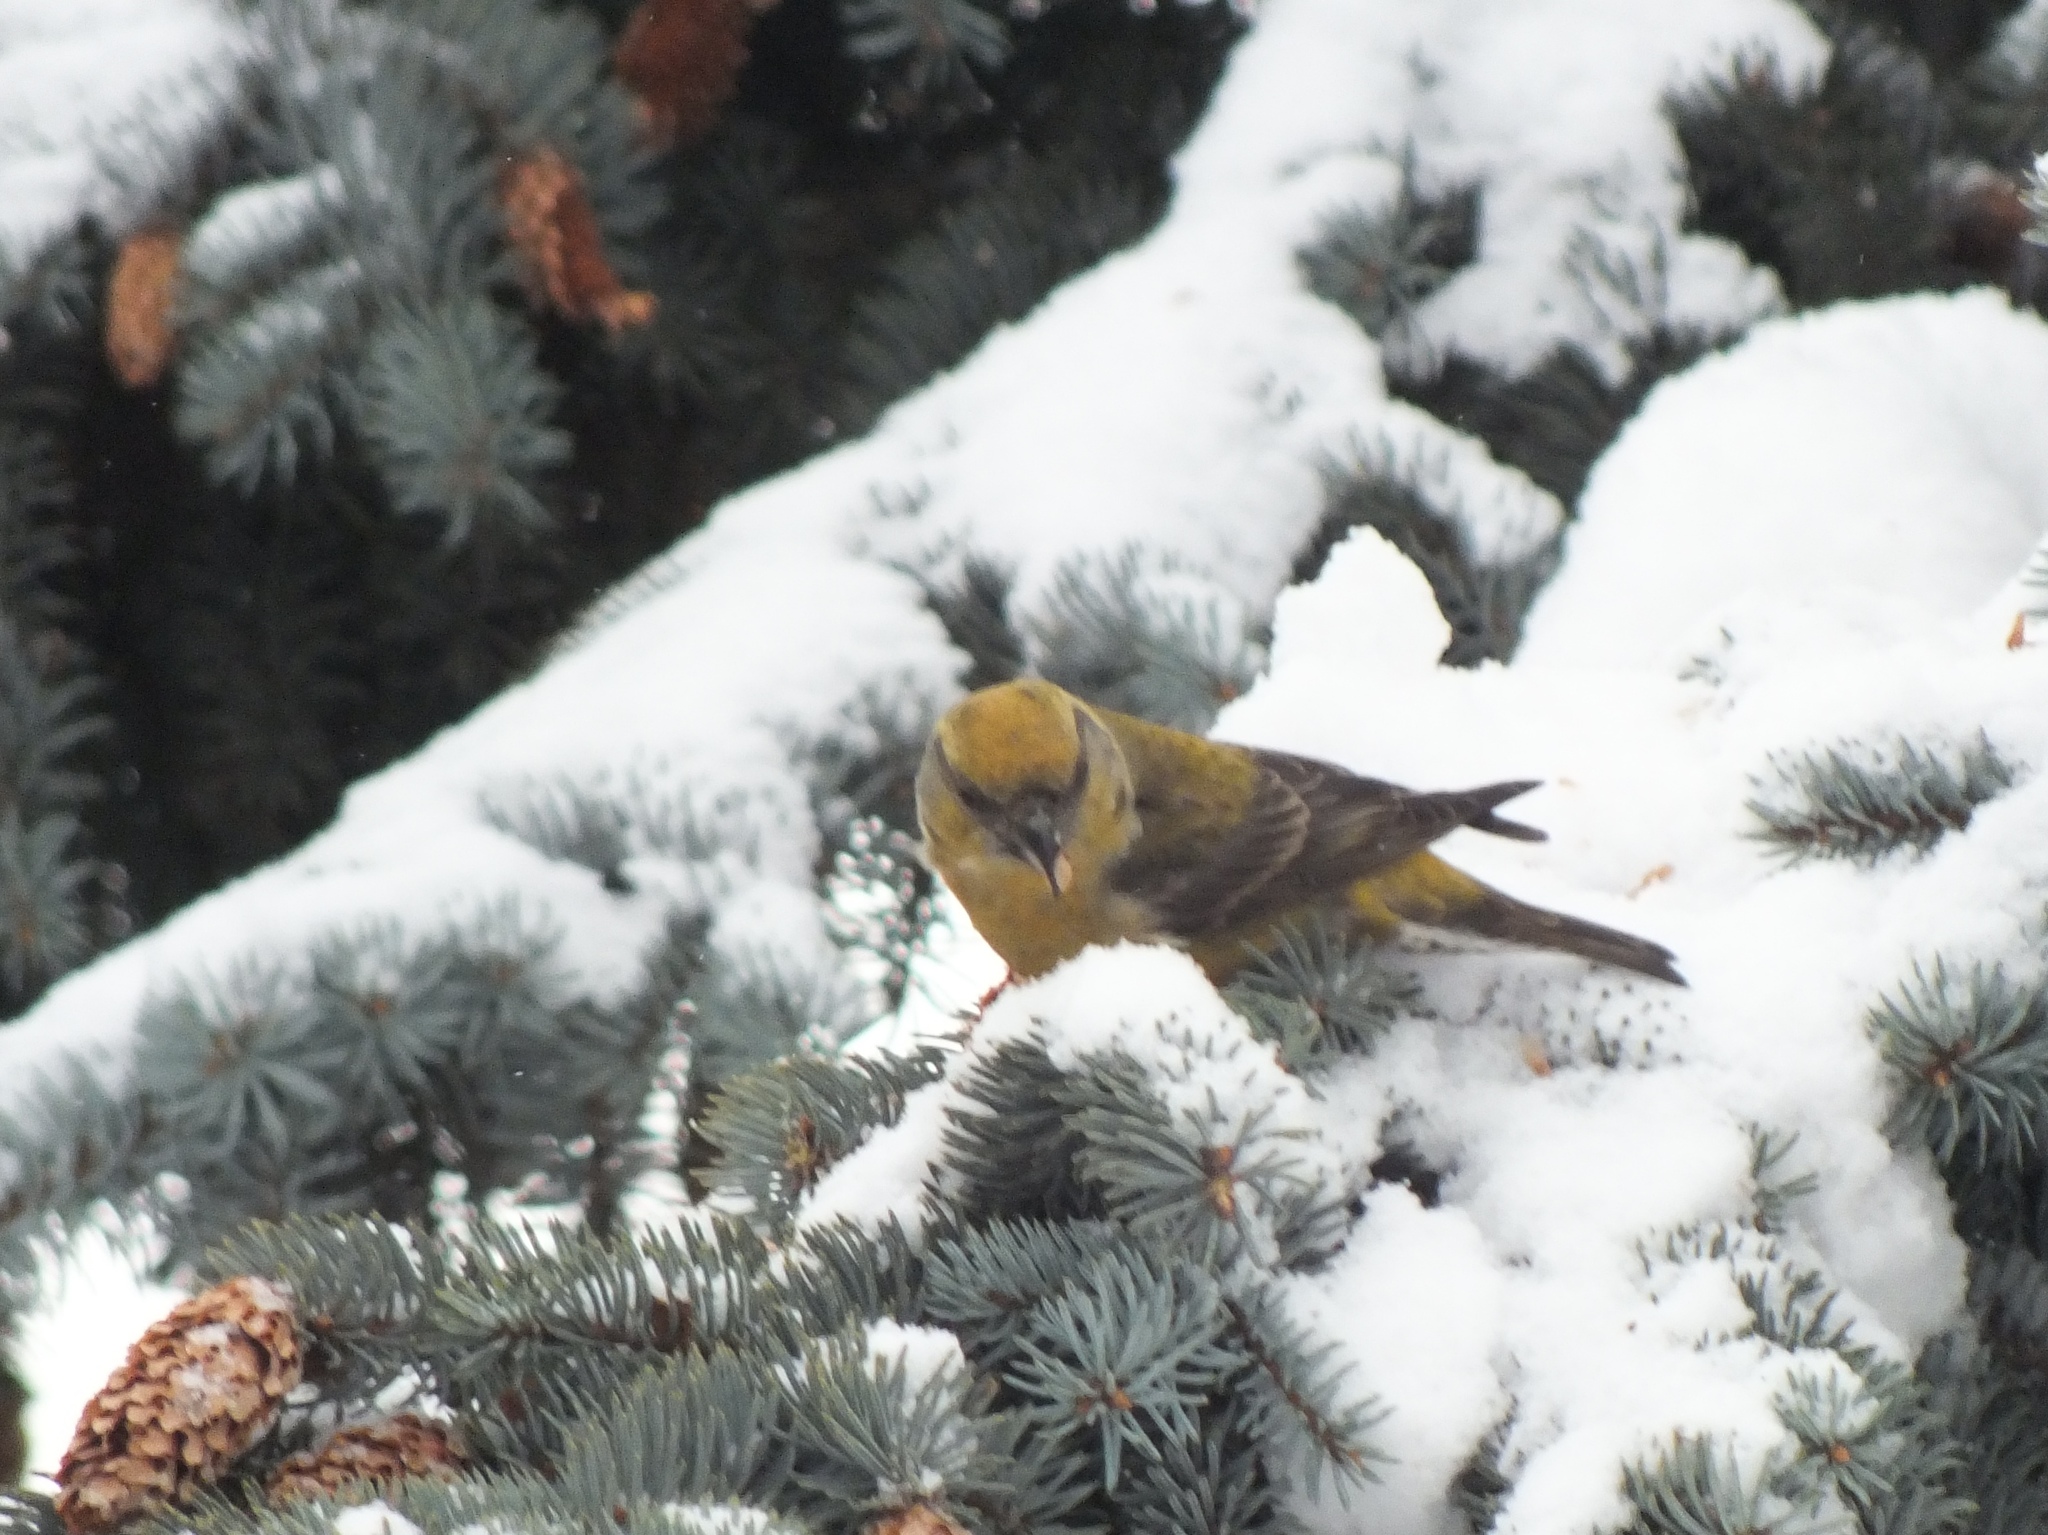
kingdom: Animalia
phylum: Chordata
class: Aves
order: Passeriformes
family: Fringillidae
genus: Loxia
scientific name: Loxia curvirostra
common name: Red crossbill
